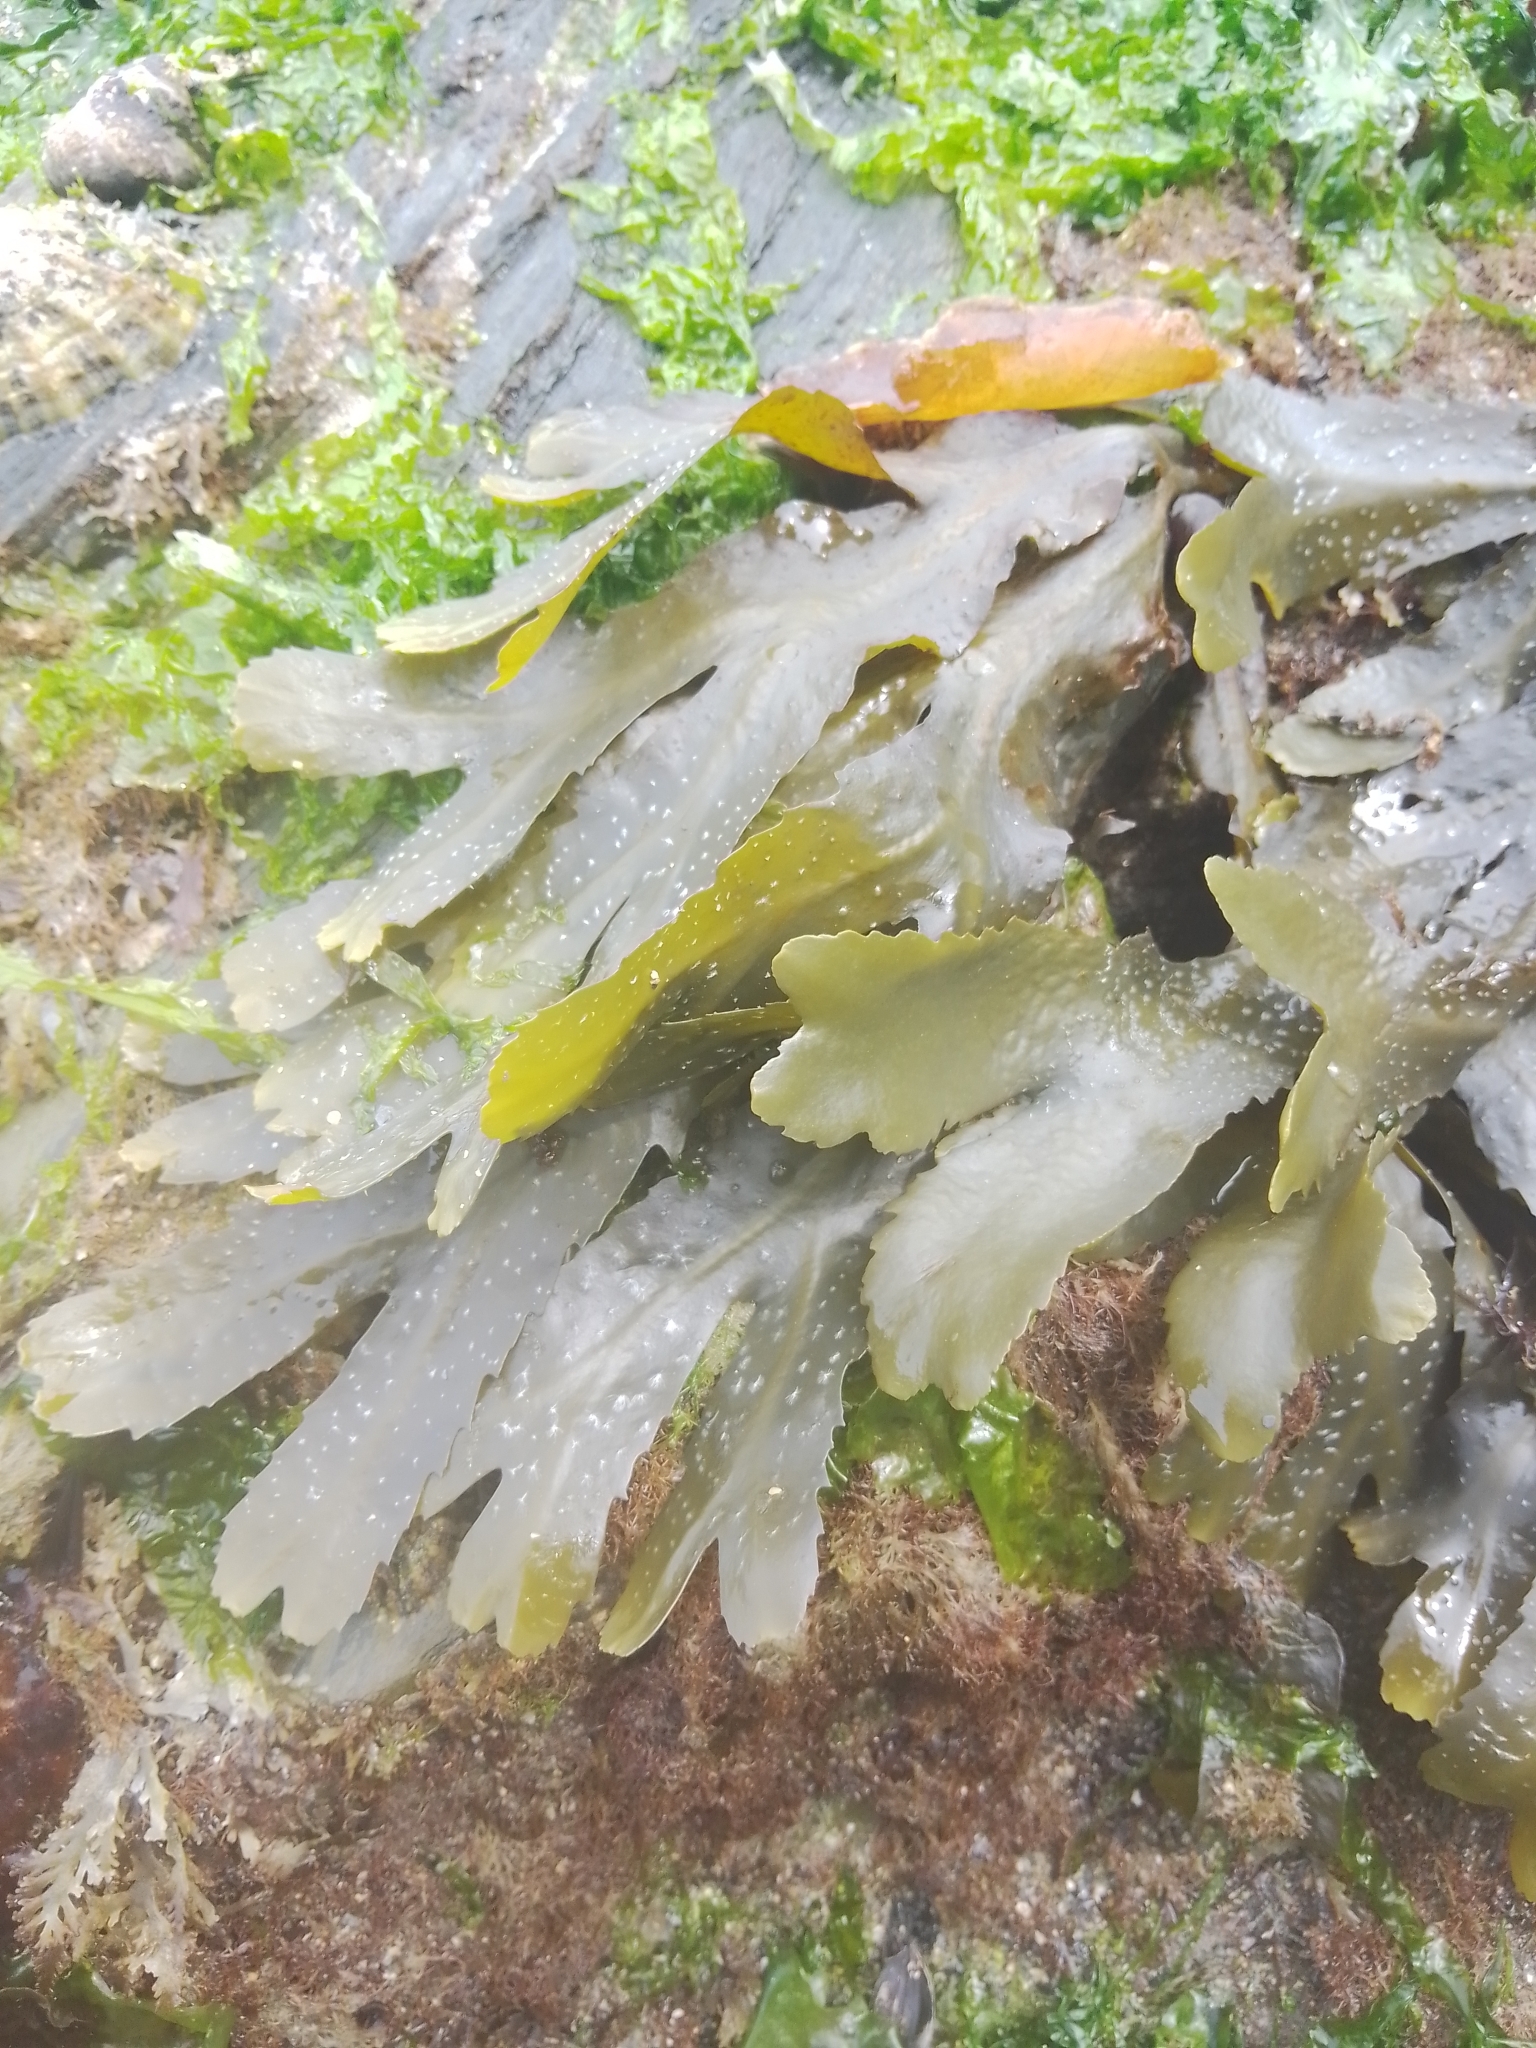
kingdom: Chromista
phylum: Ochrophyta
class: Phaeophyceae
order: Fucales
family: Fucaceae
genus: Fucus
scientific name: Fucus serratus
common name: Toothed wrack
